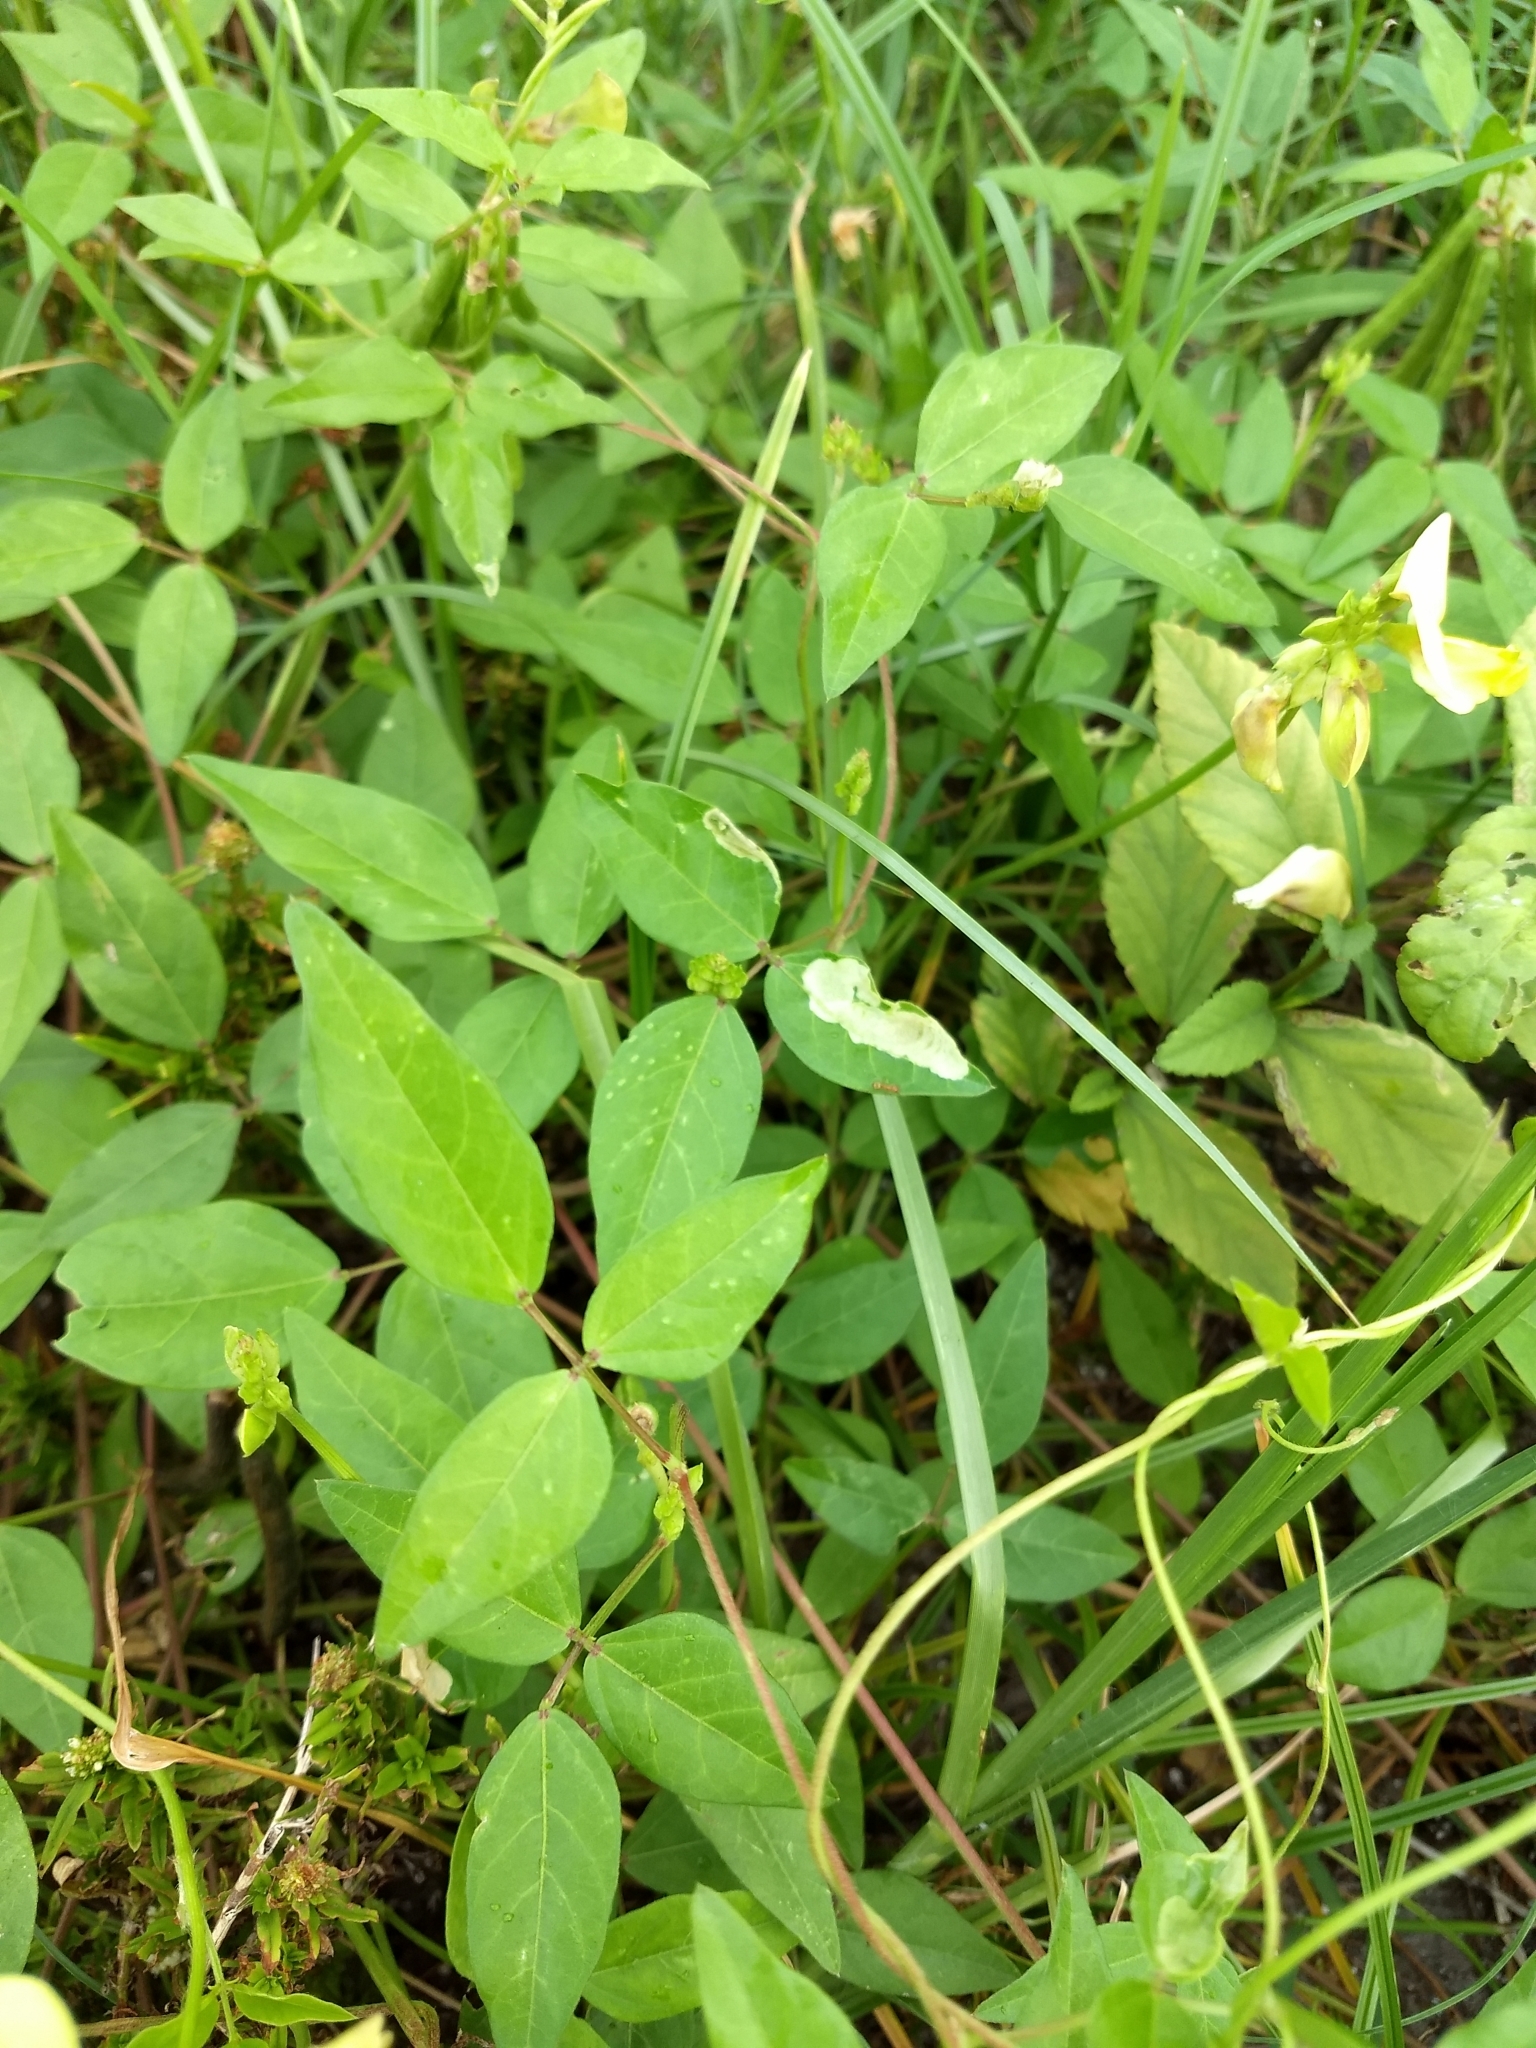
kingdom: Plantae
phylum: Tracheophyta
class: Magnoliopsida
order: Fabales
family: Fabaceae
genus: Vigna
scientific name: Vigna luteola
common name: Hairypod cowpea
